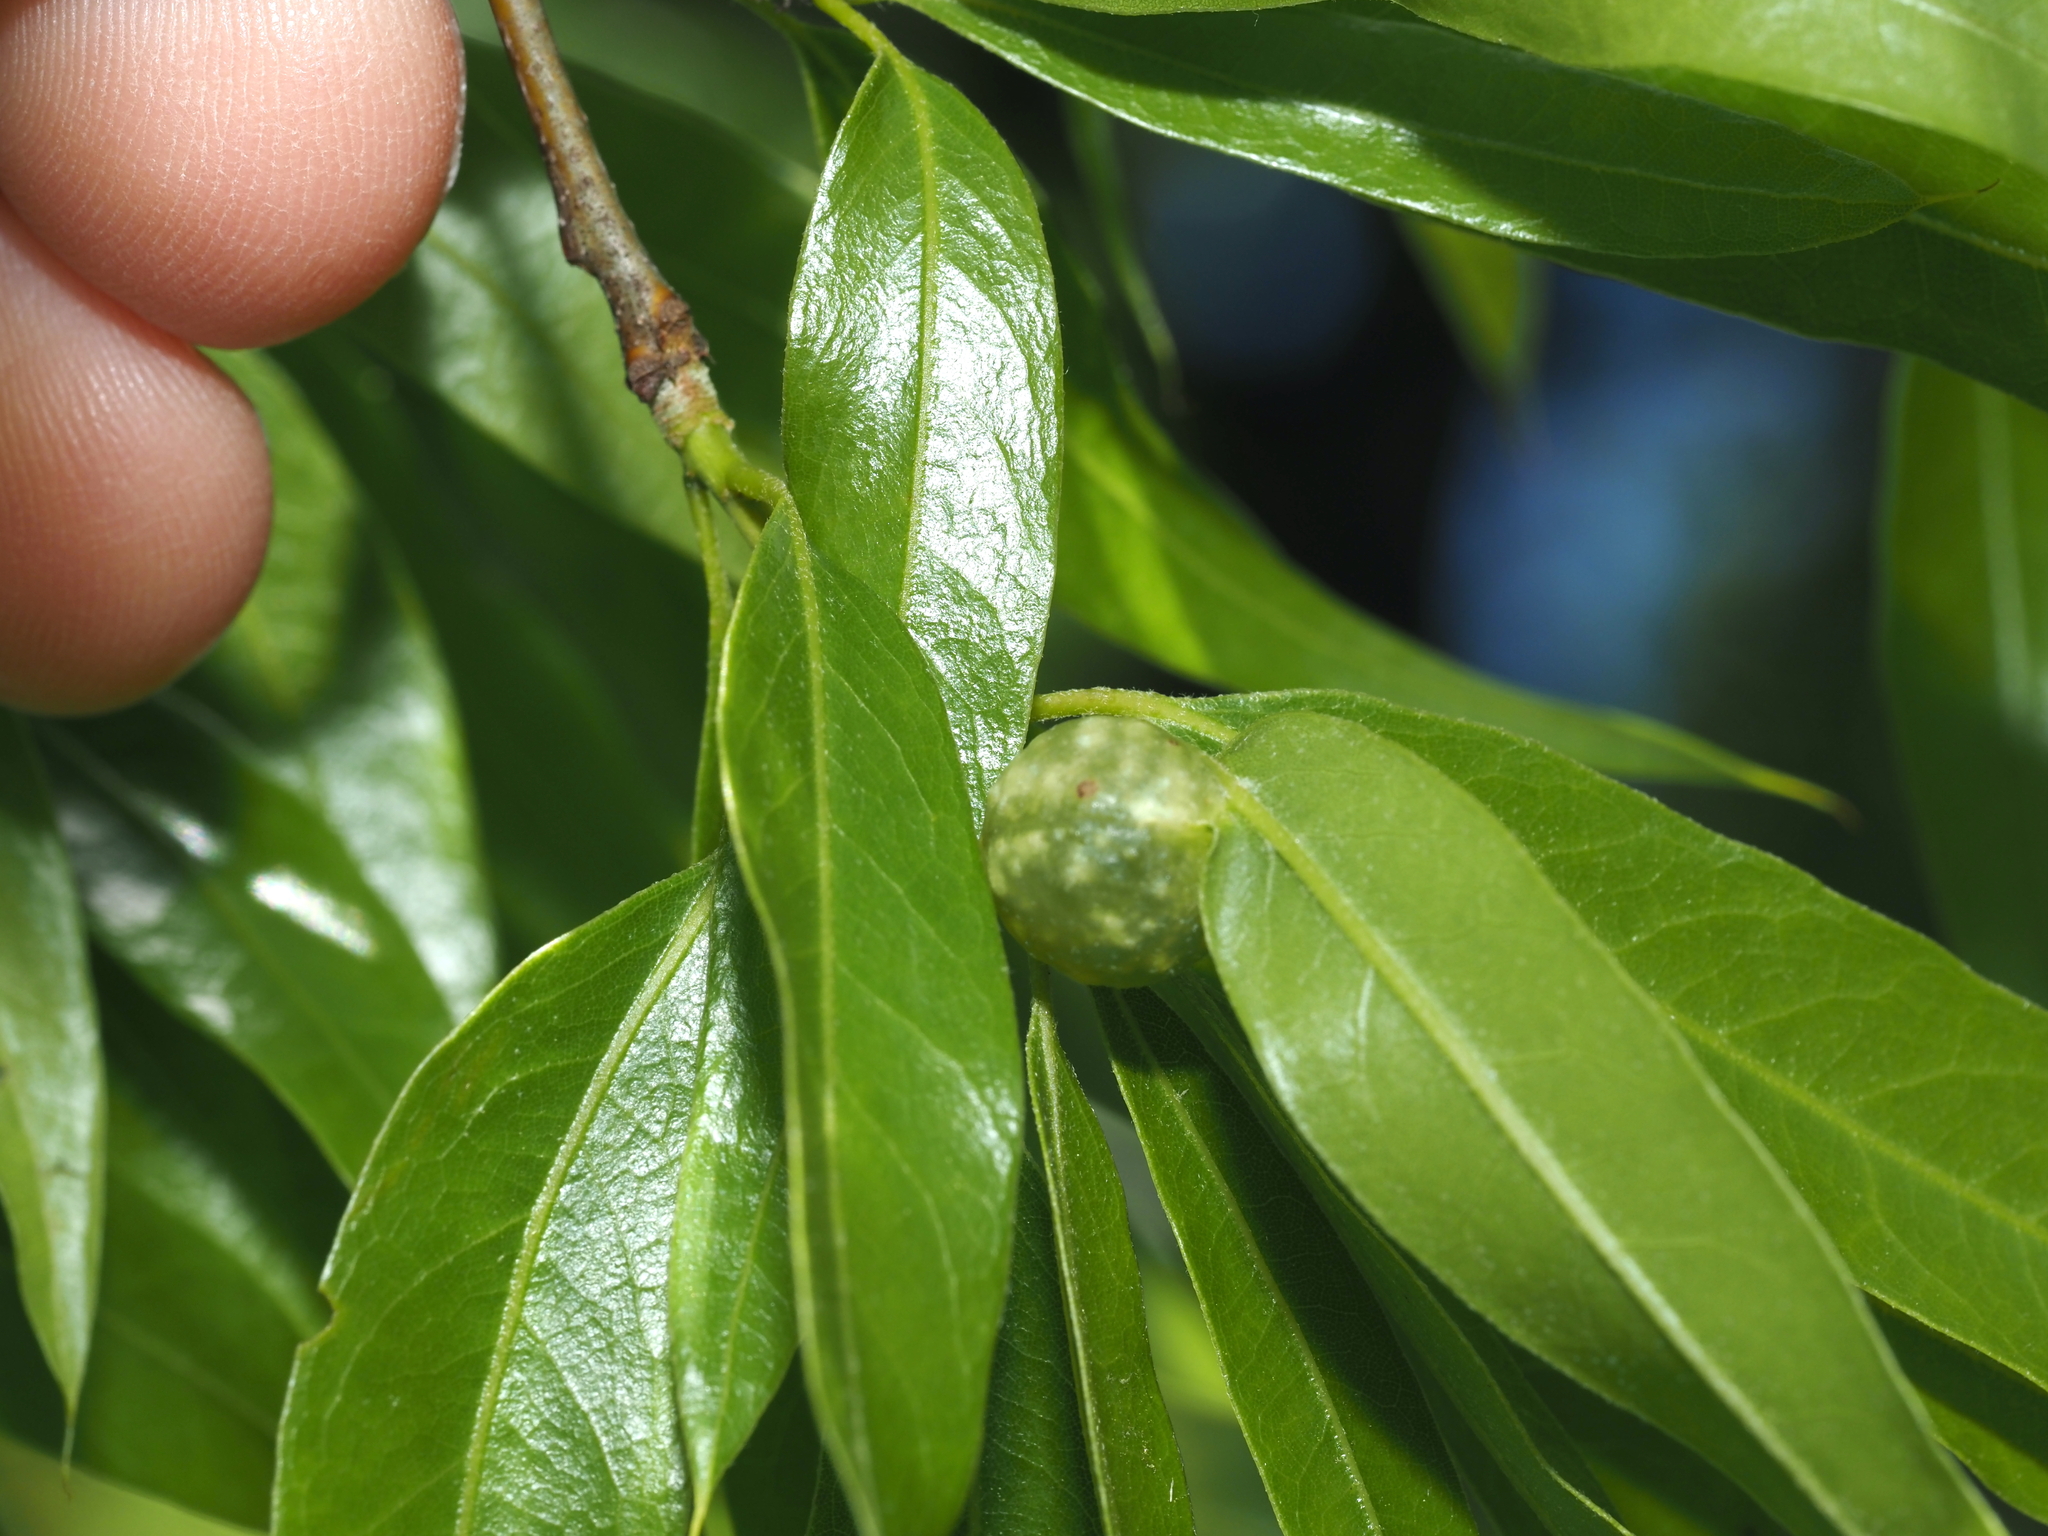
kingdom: Animalia
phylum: Arthropoda
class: Insecta
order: Hymenoptera
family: Cynipidae
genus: Dryocosmus
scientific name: Dryocosmus
